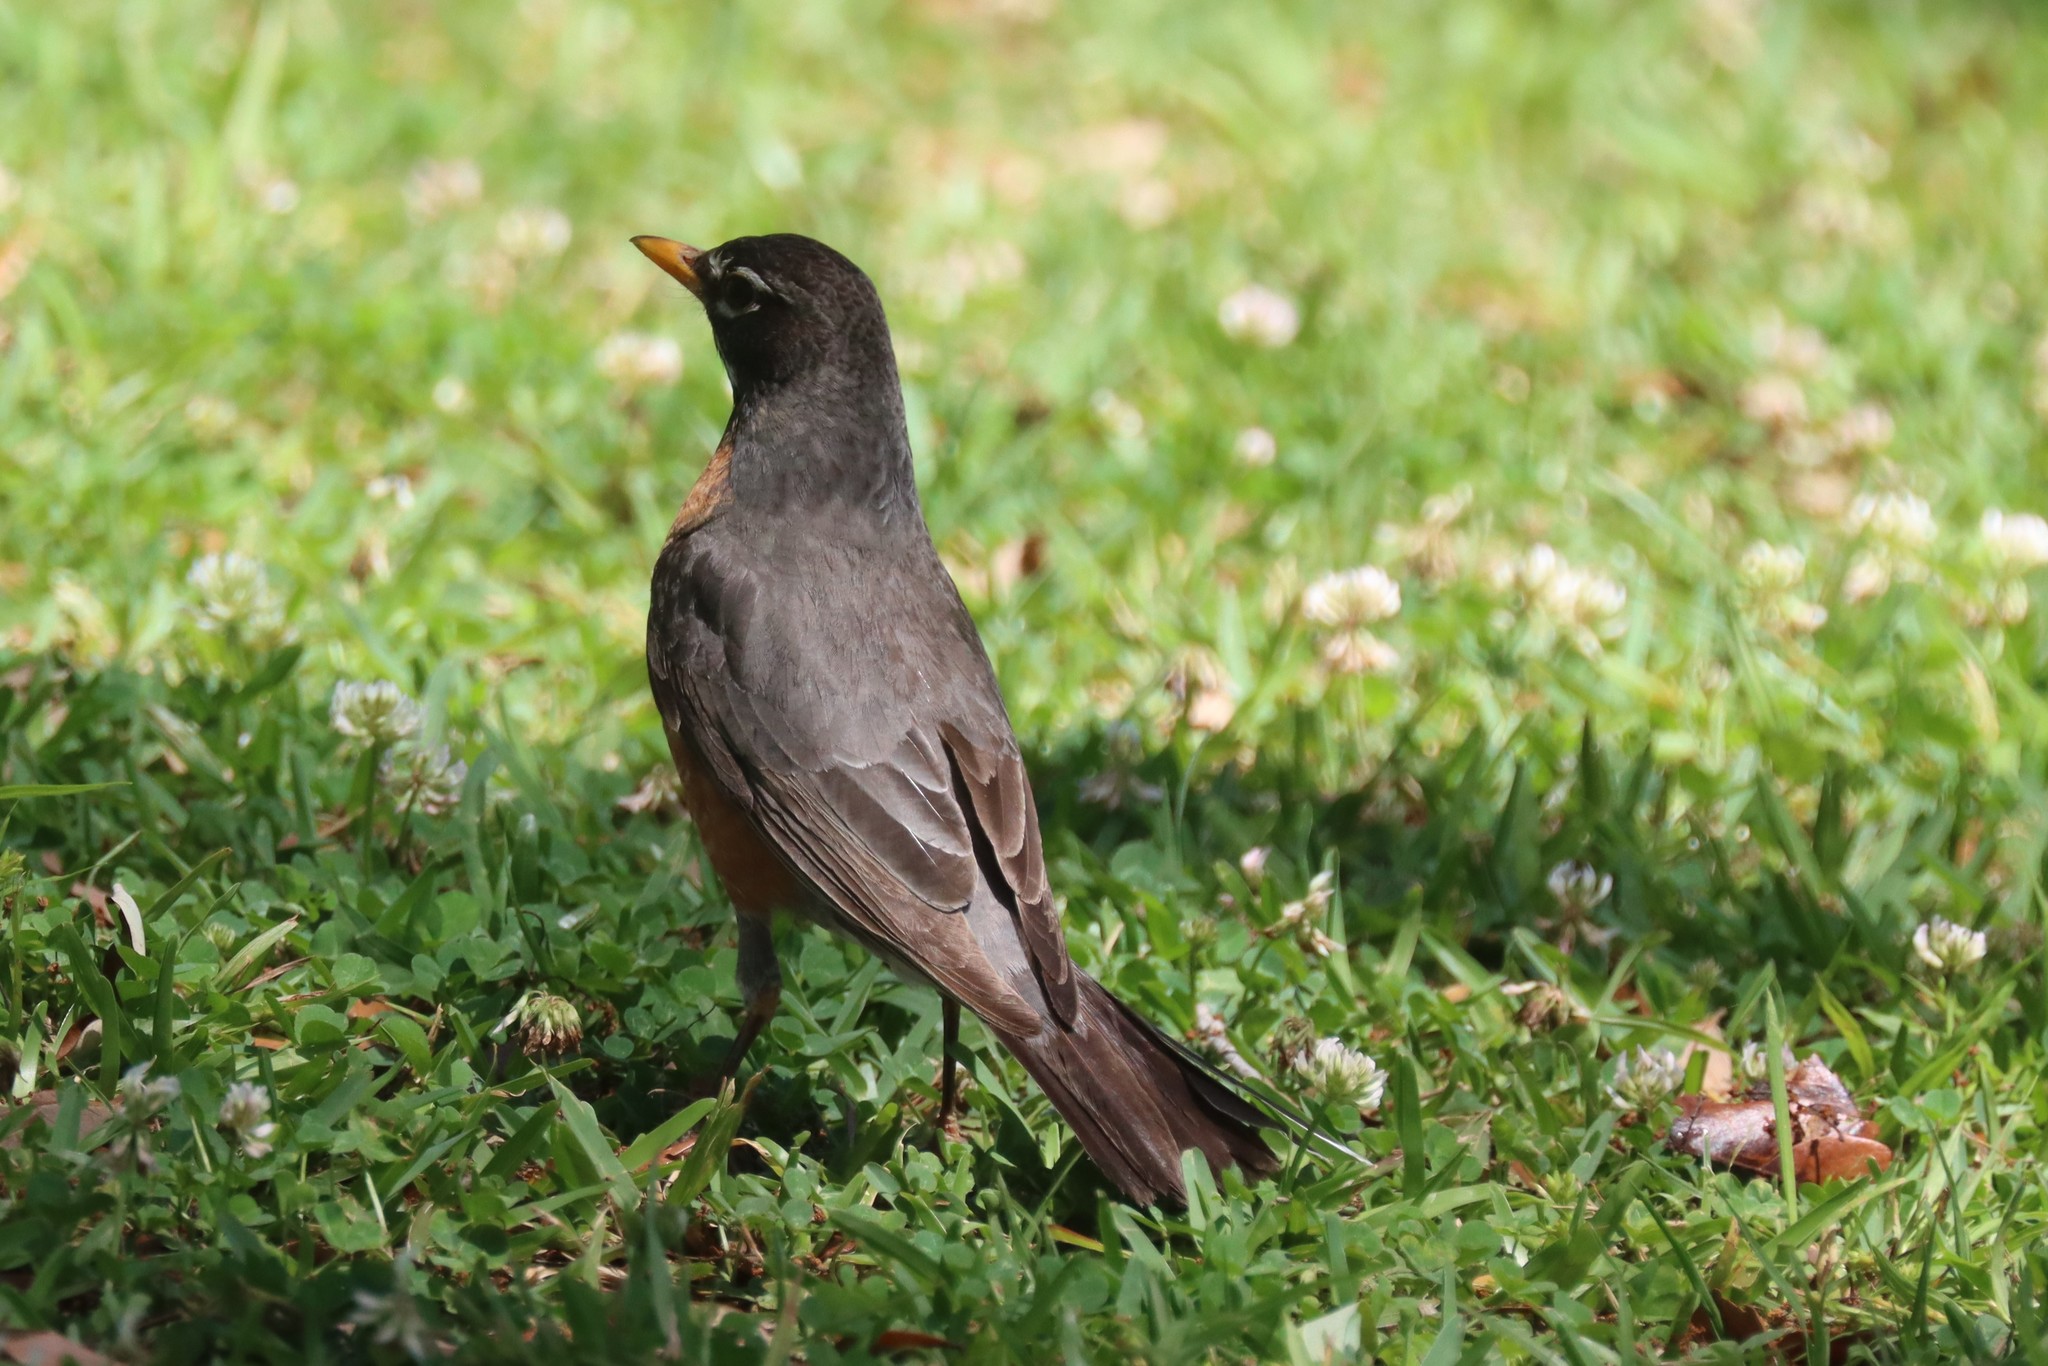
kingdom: Animalia
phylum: Chordata
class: Aves
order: Passeriformes
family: Turdidae
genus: Turdus
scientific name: Turdus migratorius
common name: American robin
